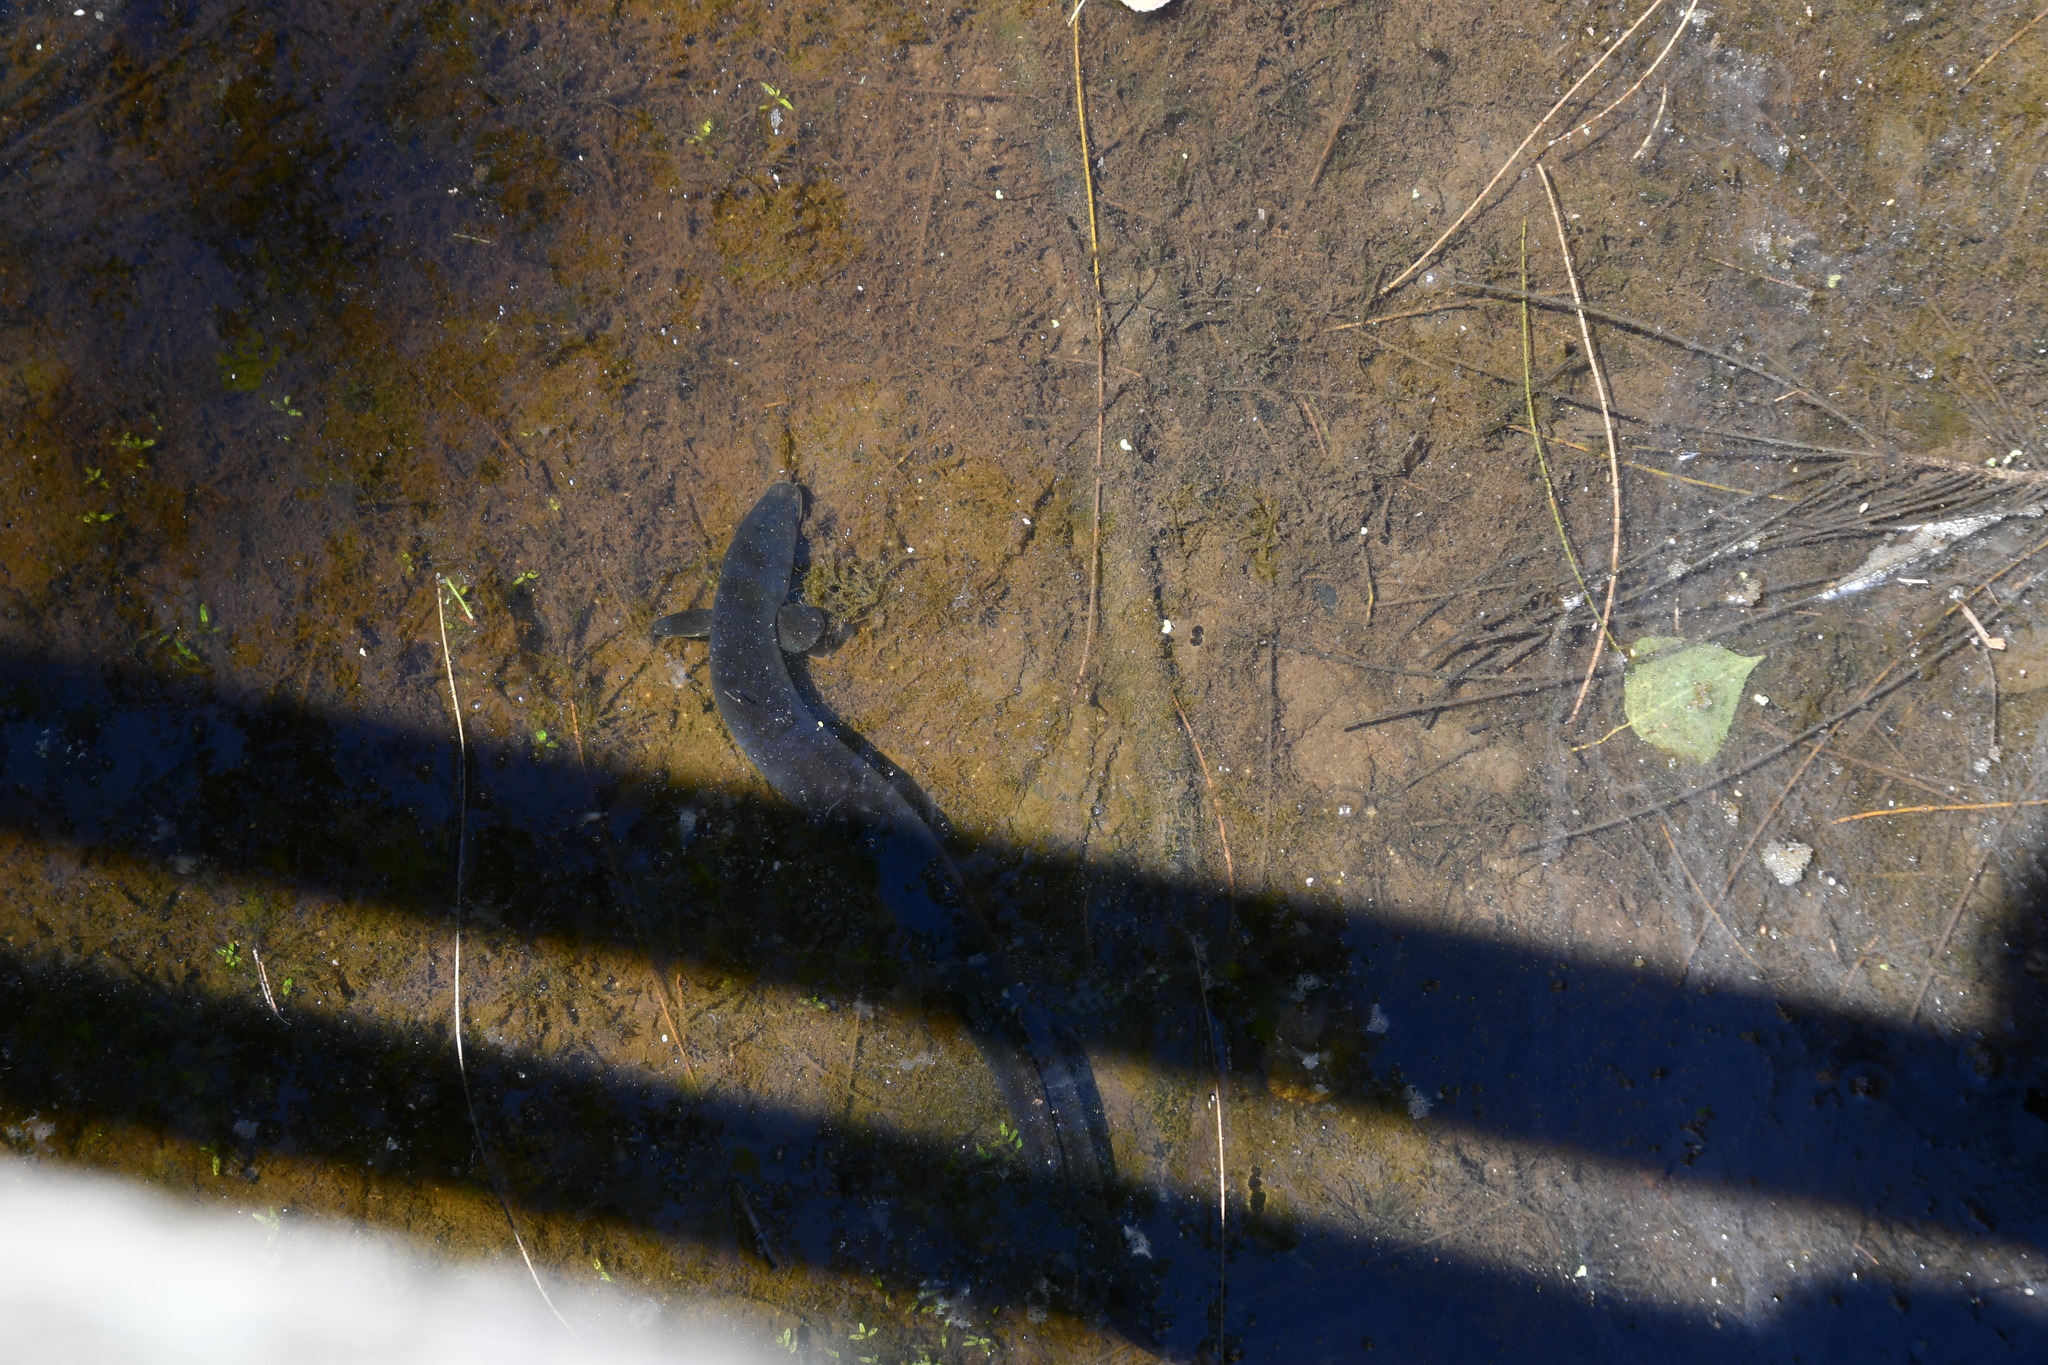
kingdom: Animalia
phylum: Chordata
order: Anguilliformes
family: Anguillidae
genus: Anguilla
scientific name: Anguilla australis
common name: Shortfin eel
